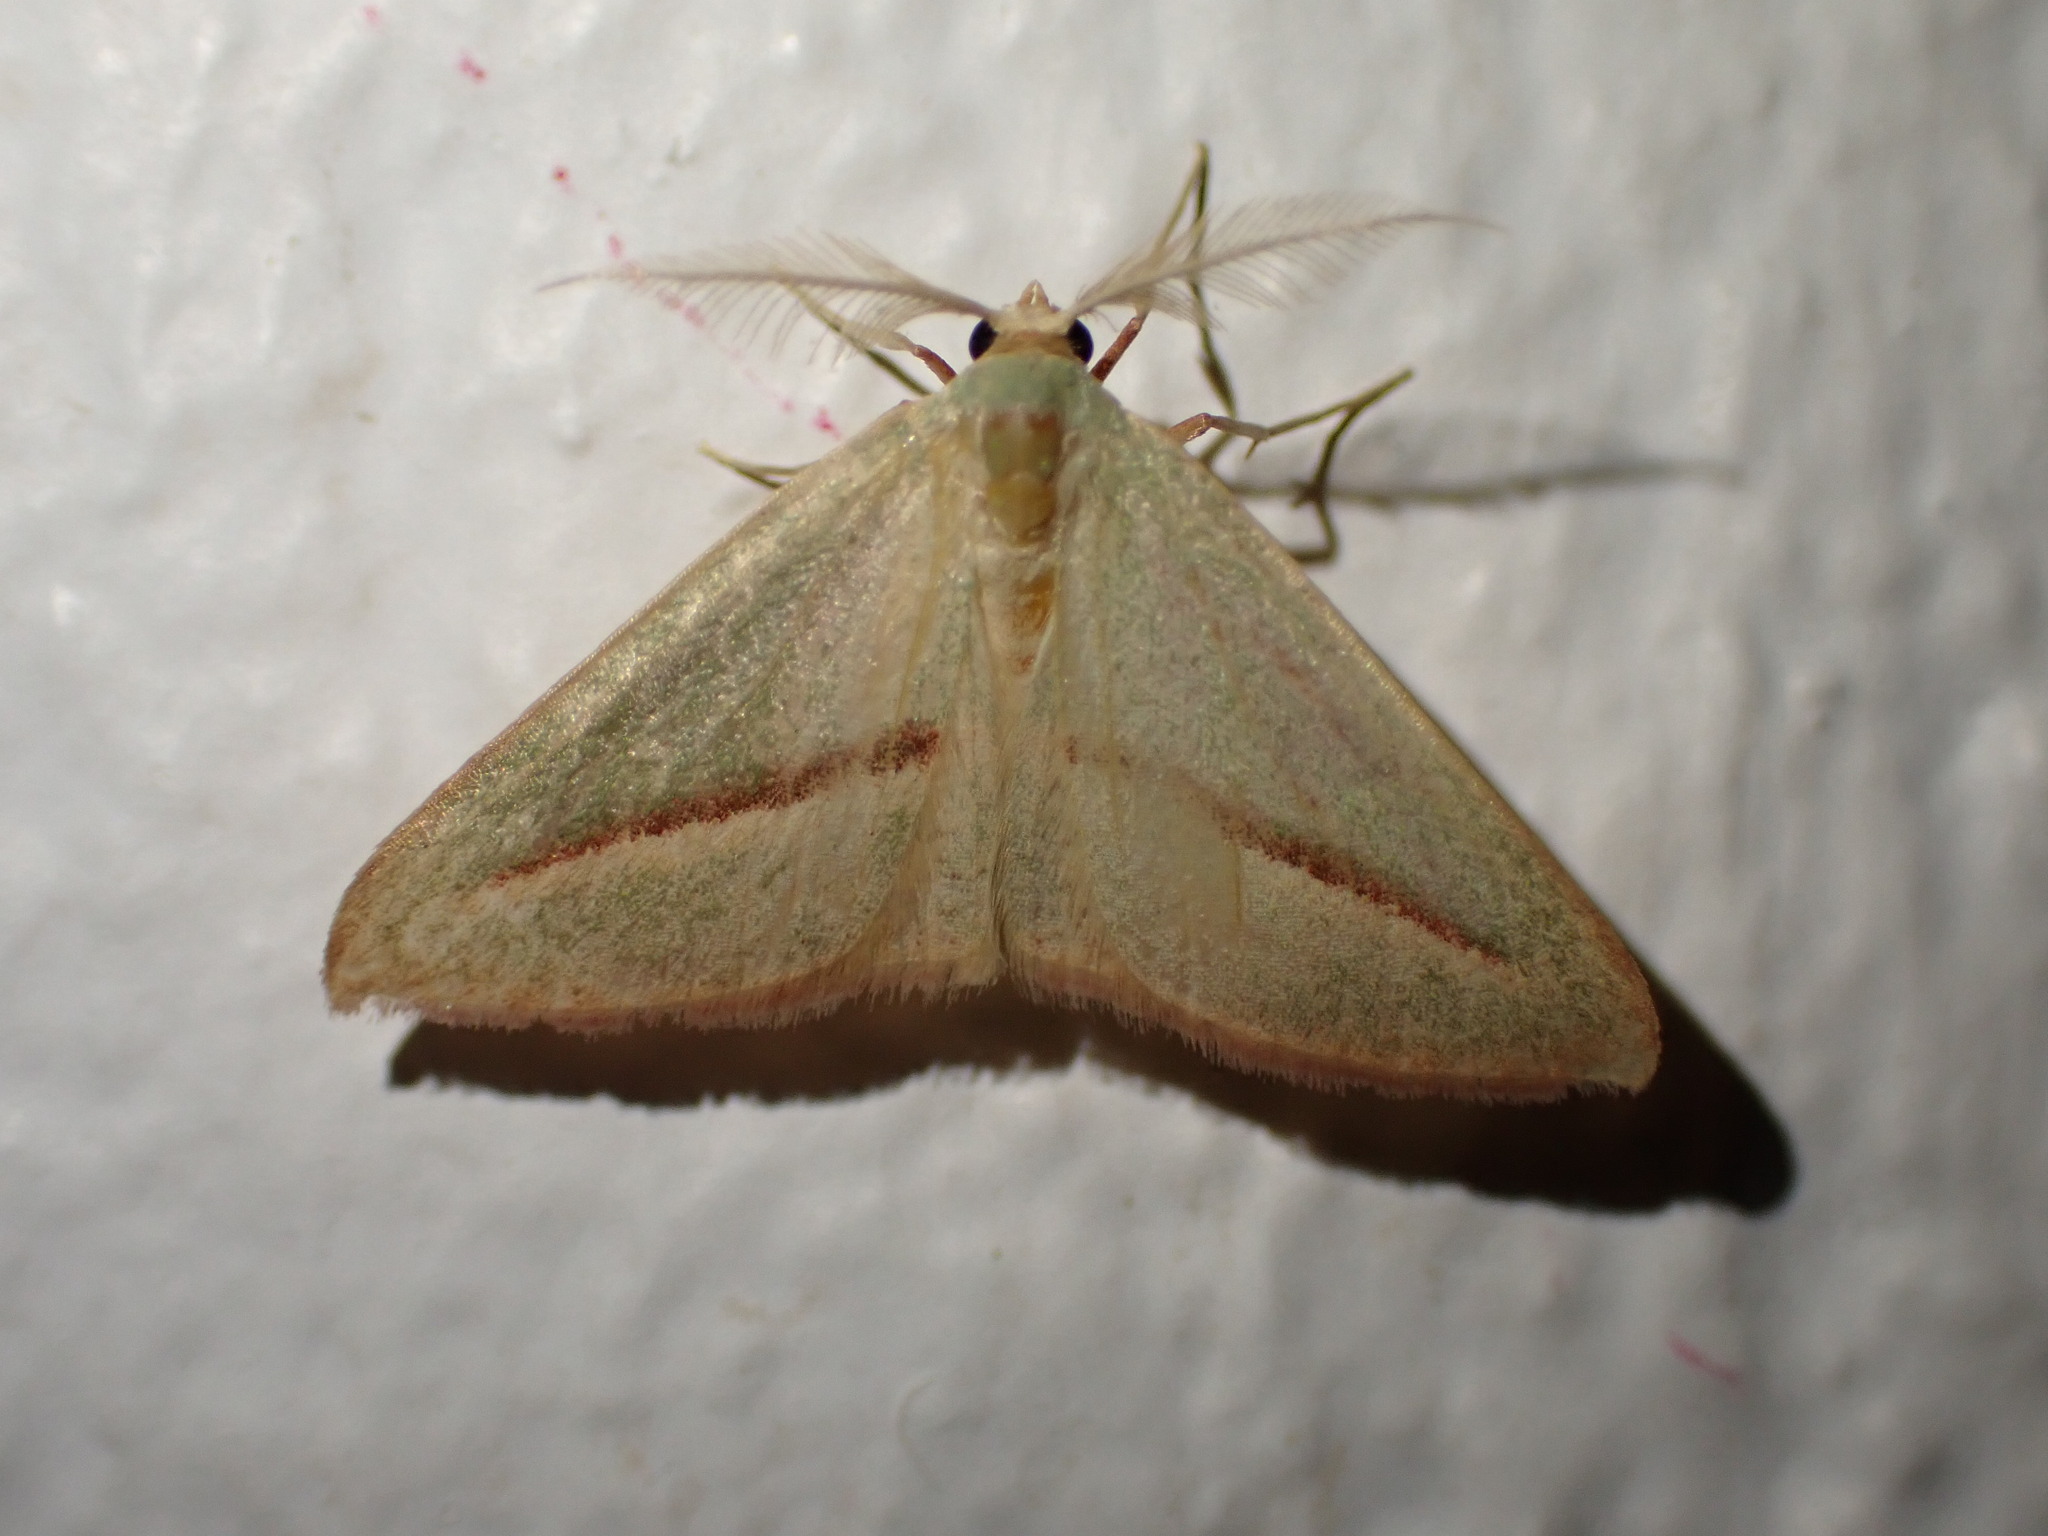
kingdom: Animalia
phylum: Arthropoda
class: Insecta
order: Lepidoptera
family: Geometridae
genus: Chlorerythra
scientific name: Chlorerythra rubriplaga
